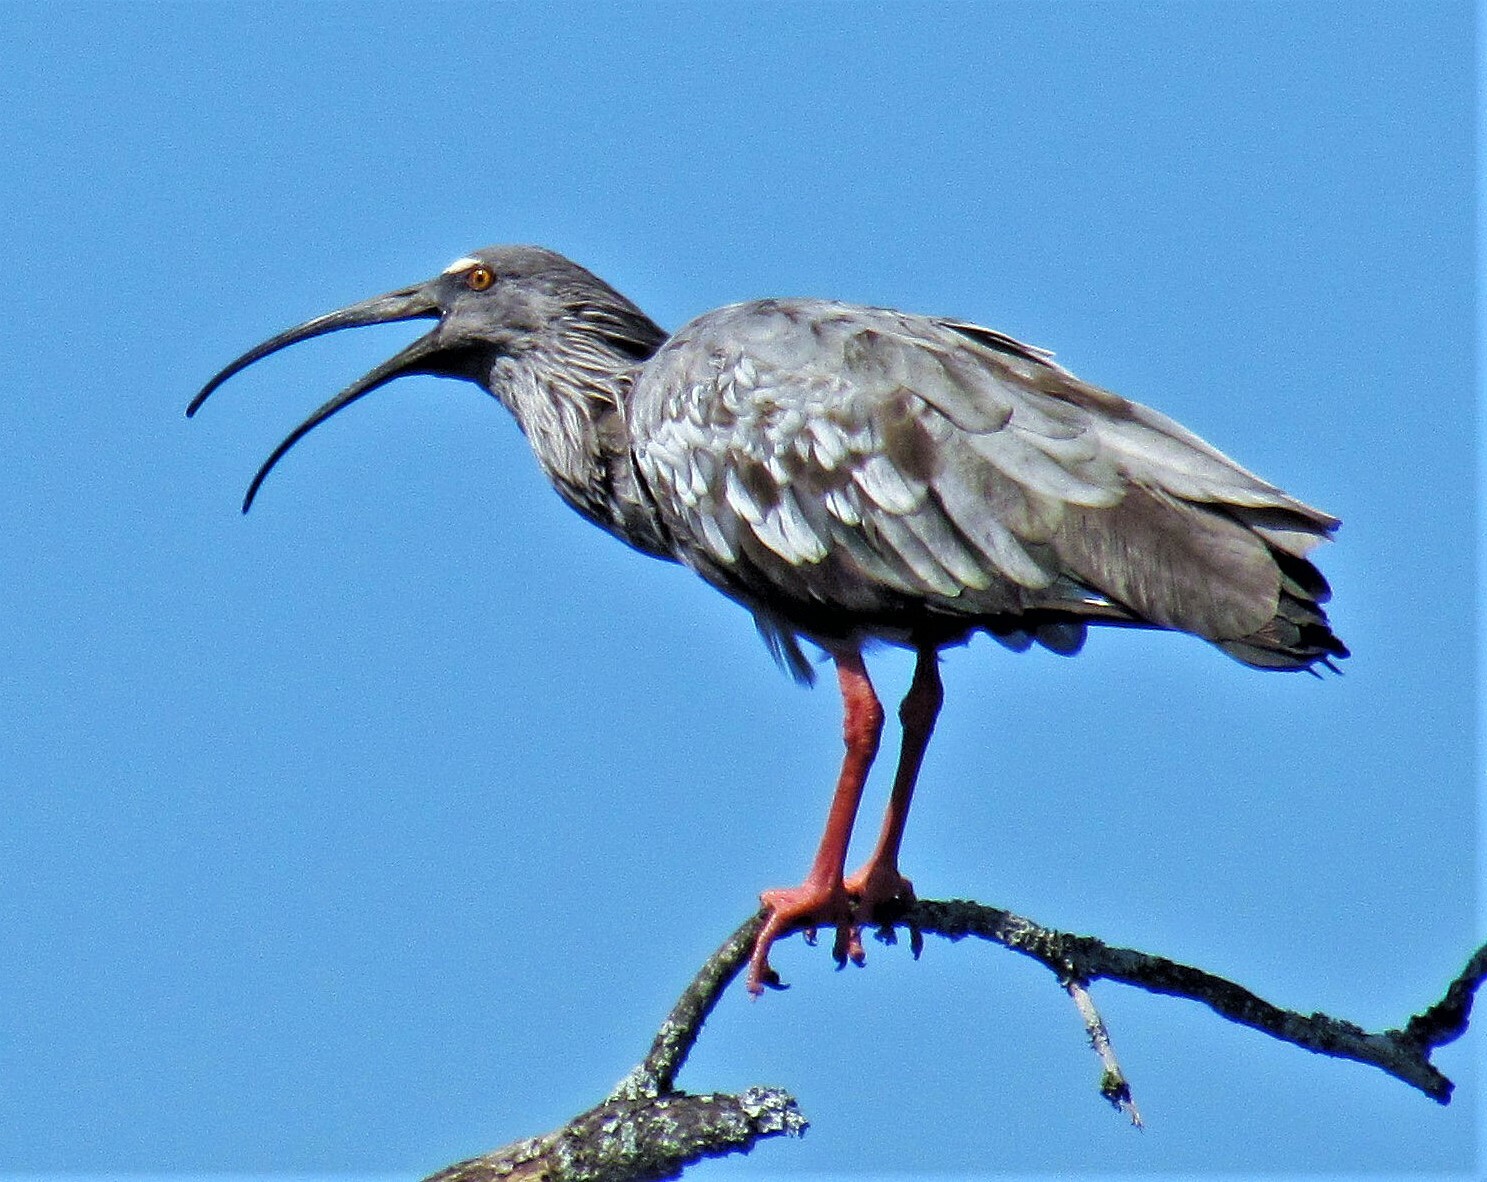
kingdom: Animalia
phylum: Chordata
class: Aves
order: Pelecaniformes
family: Threskiornithidae
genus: Theristicus
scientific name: Theristicus caerulescens
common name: Plumbeous ibis
